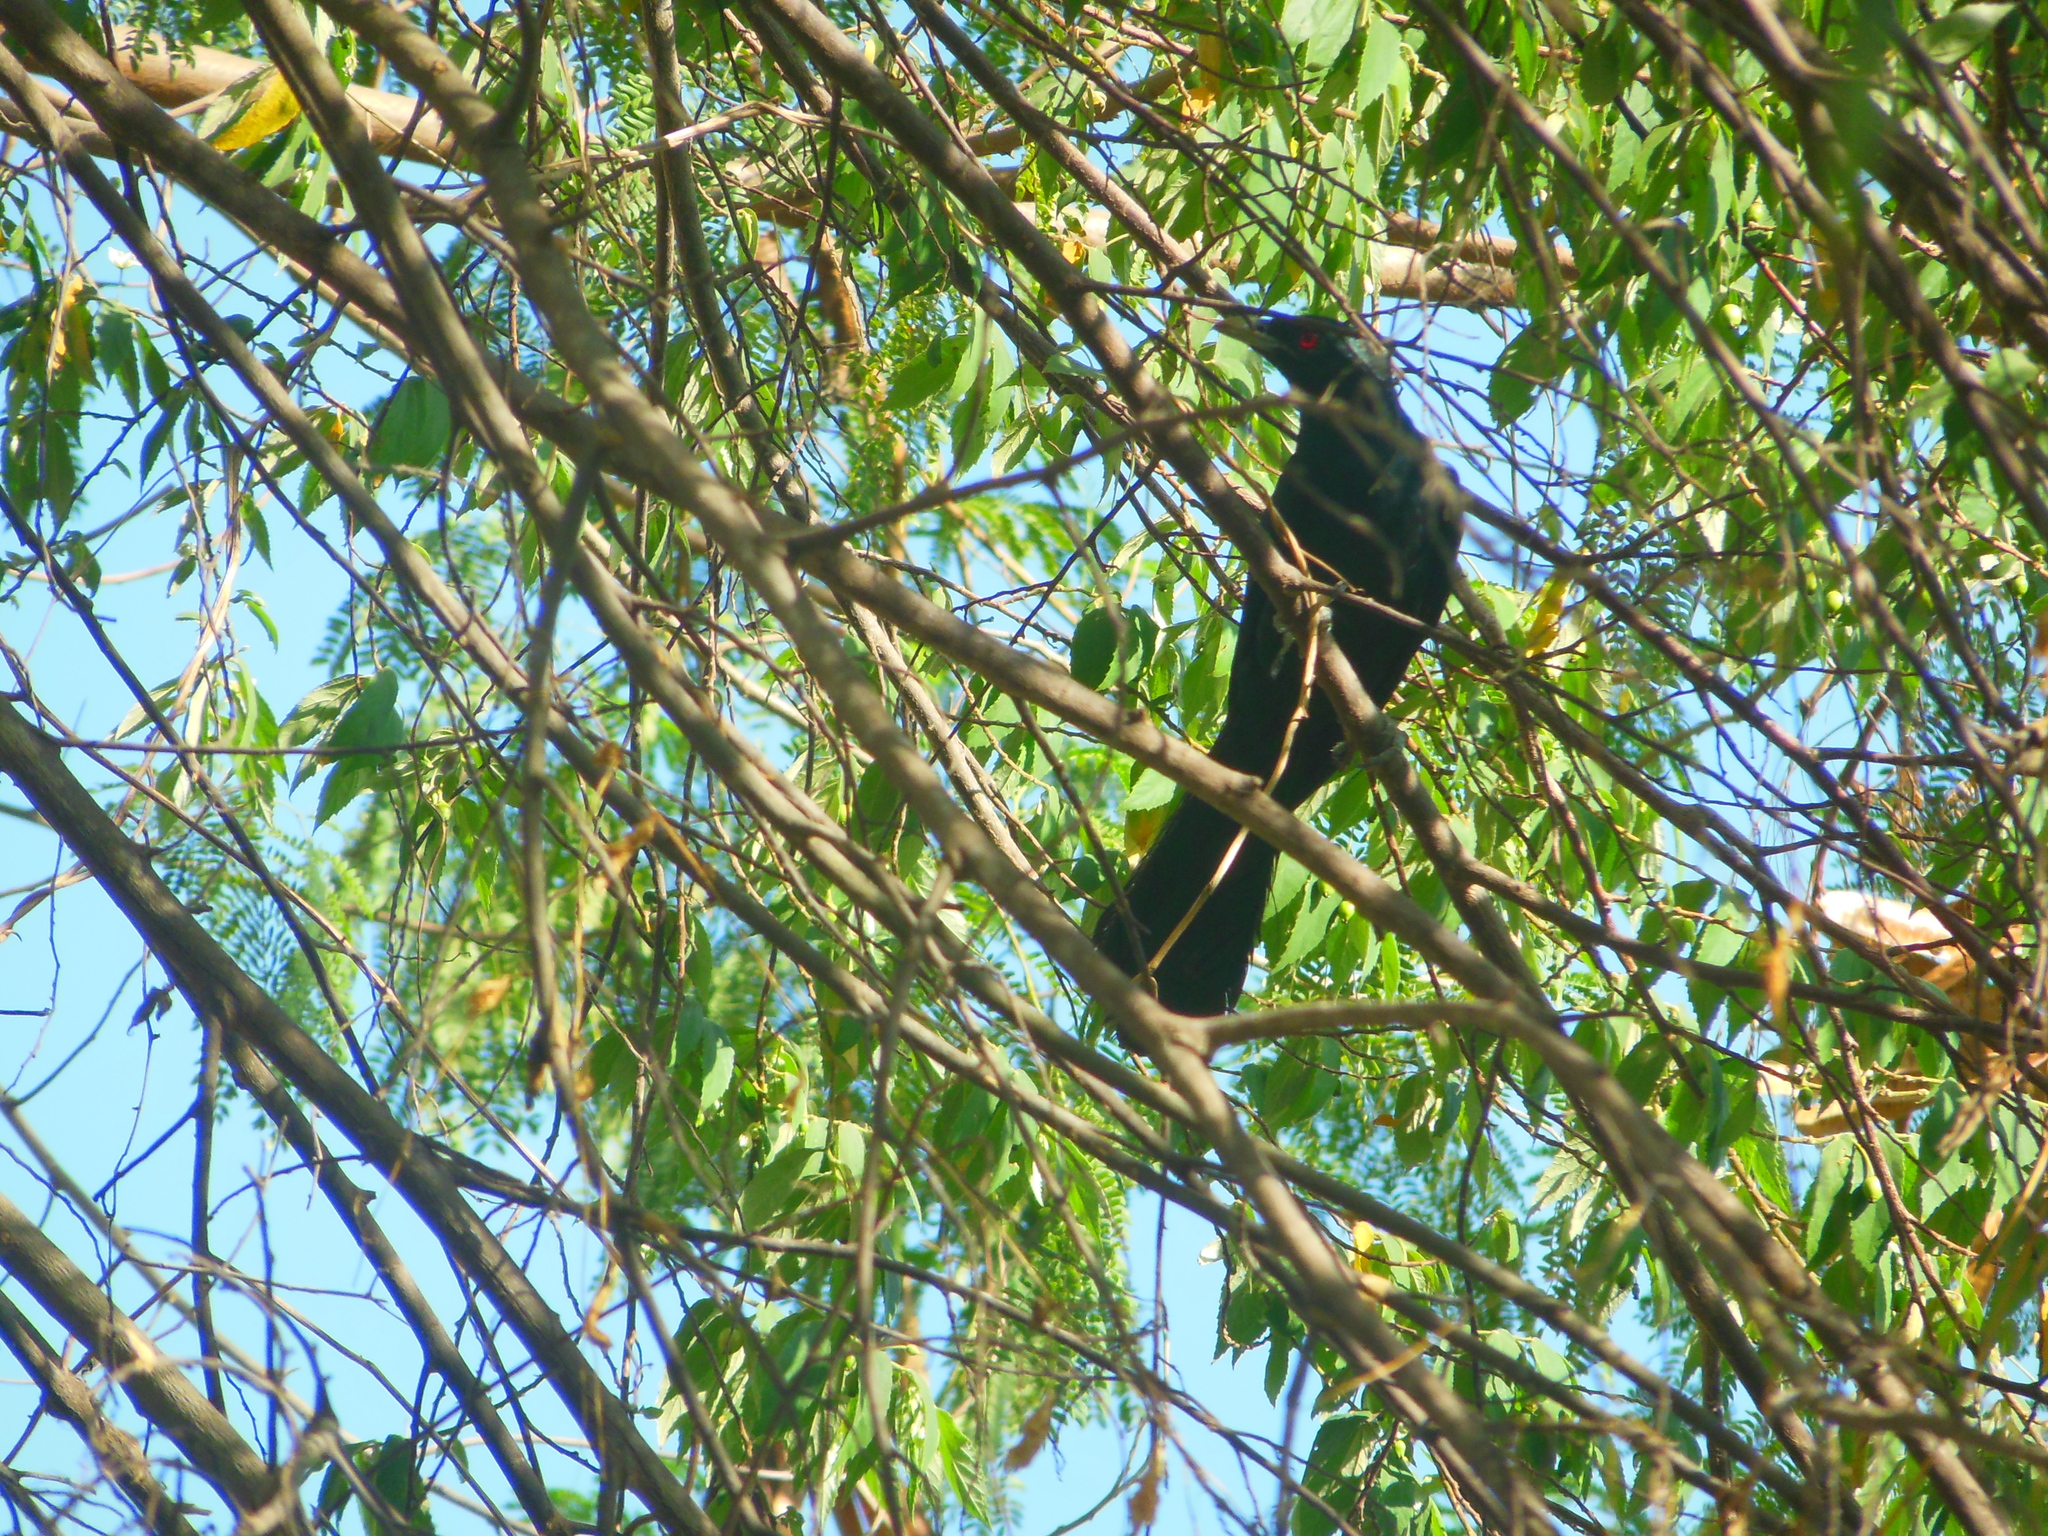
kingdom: Animalia
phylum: Chordata
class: Aves
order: Cuculiformes
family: Cuculidae
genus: Eudynamys
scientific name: Eudynamys scolopaceus
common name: Asian koel
